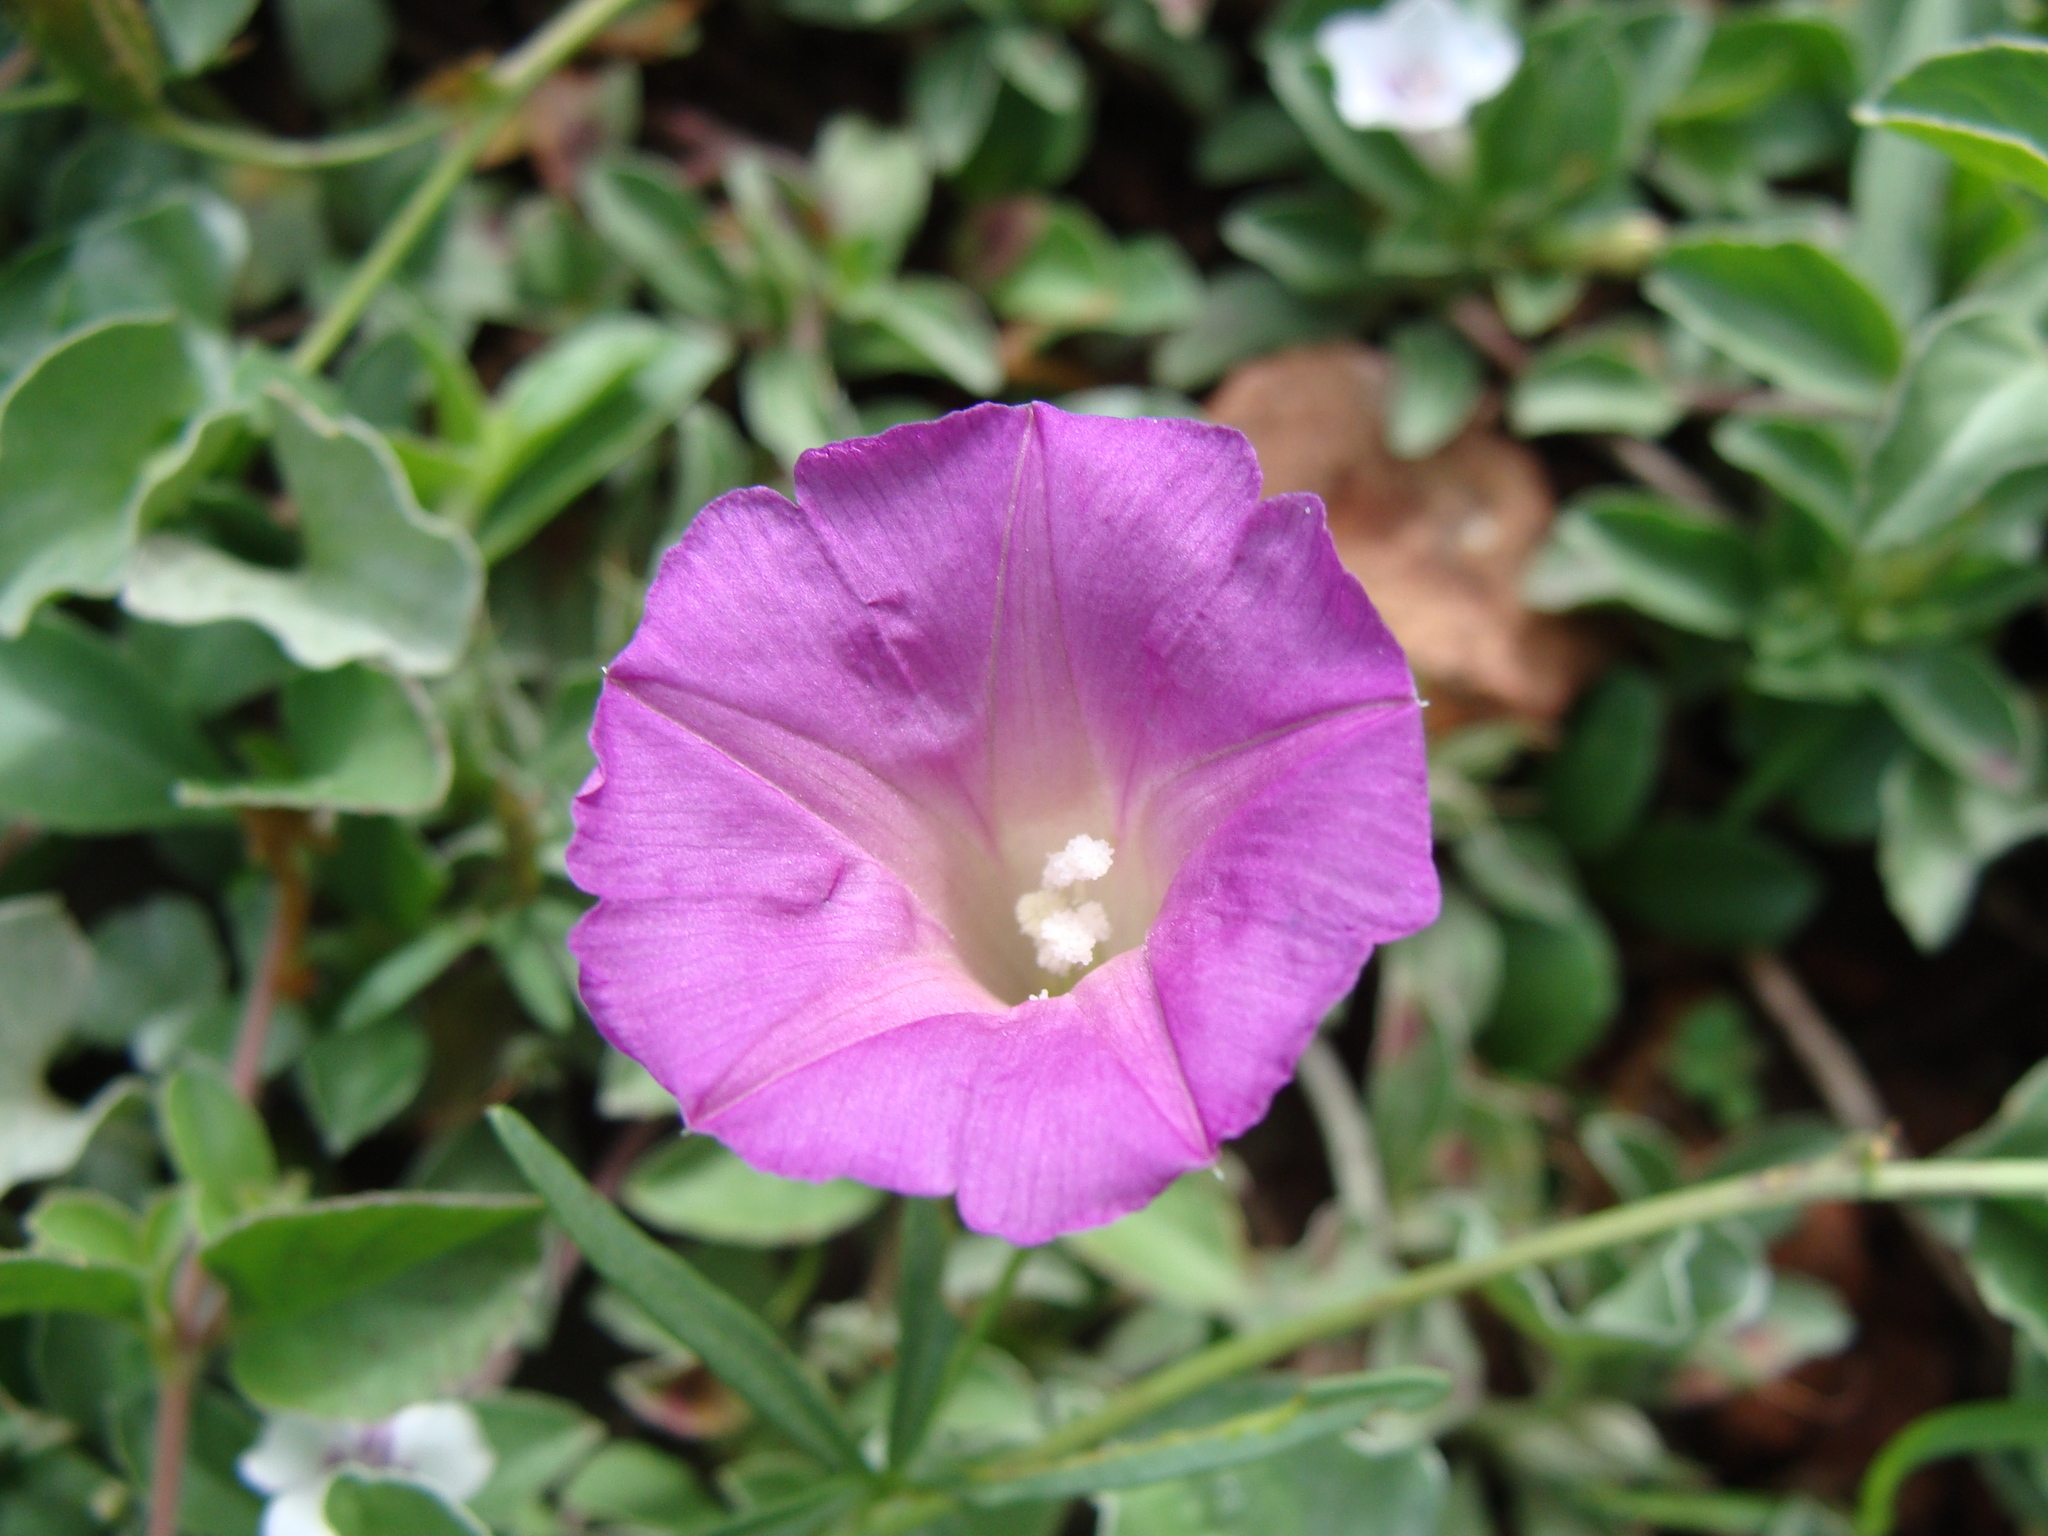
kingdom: Plantae
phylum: Tracheophyta
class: Magnoliopsida
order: Solanales
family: Convolvulaceae
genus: Ipomoea
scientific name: Ipomoea plummerae
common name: Plummer's morning-glory
